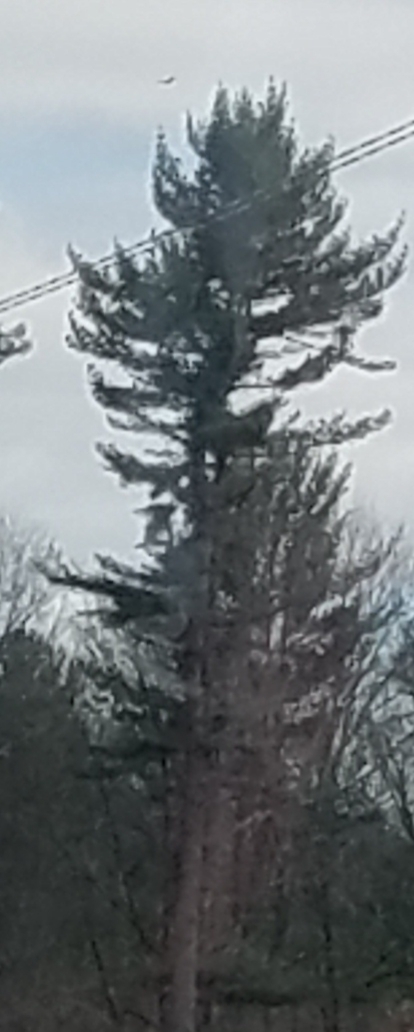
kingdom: Plantae
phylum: Tracheophyta
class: Pinopsida
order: Pinales
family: Pinaceae
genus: Pinus
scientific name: Pinus strobus
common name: Weymouth pine
